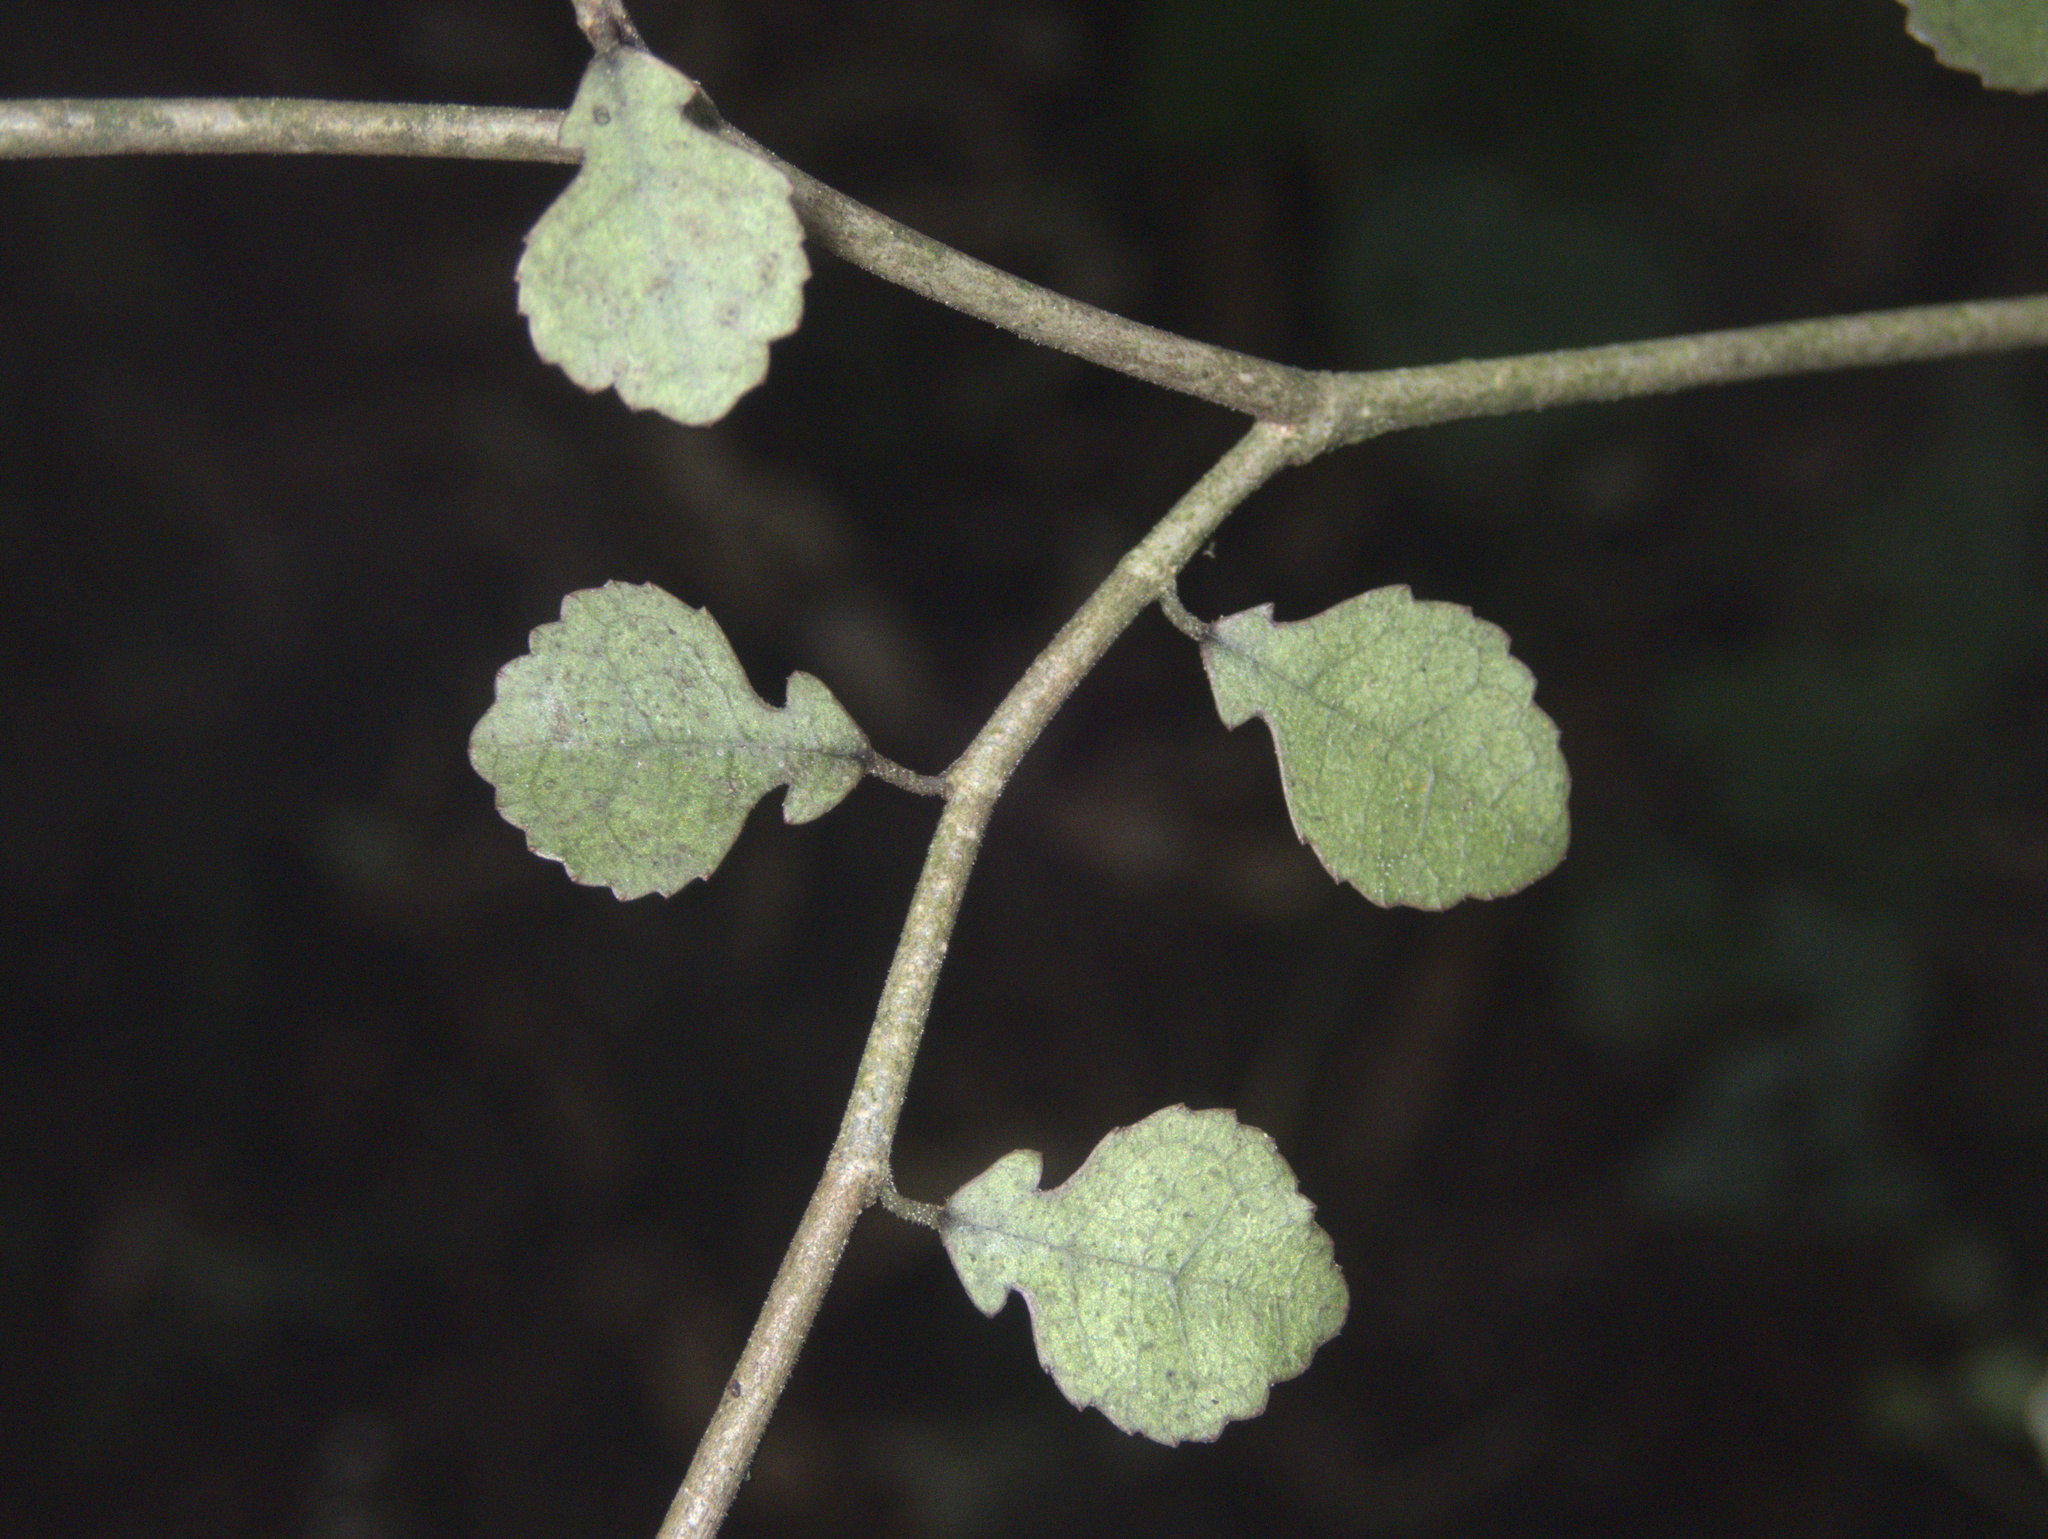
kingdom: Plantae
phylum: Tracheophyta
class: Magnoliopsida
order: Rosales
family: Moraceae
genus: Paratrophis
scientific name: Paratrophis microphylla
